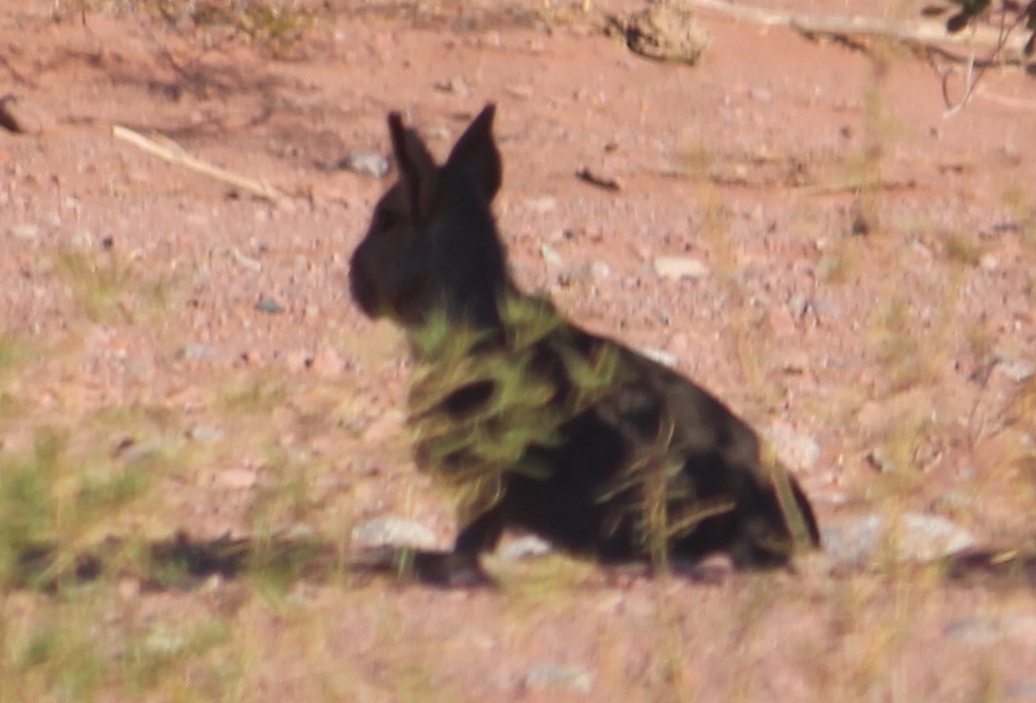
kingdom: Animalia
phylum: Chordata
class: Mammalia
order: Rodentia
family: Caviidae
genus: Dolichotis
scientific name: Dolichotis patagonum
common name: Patagonian mara
